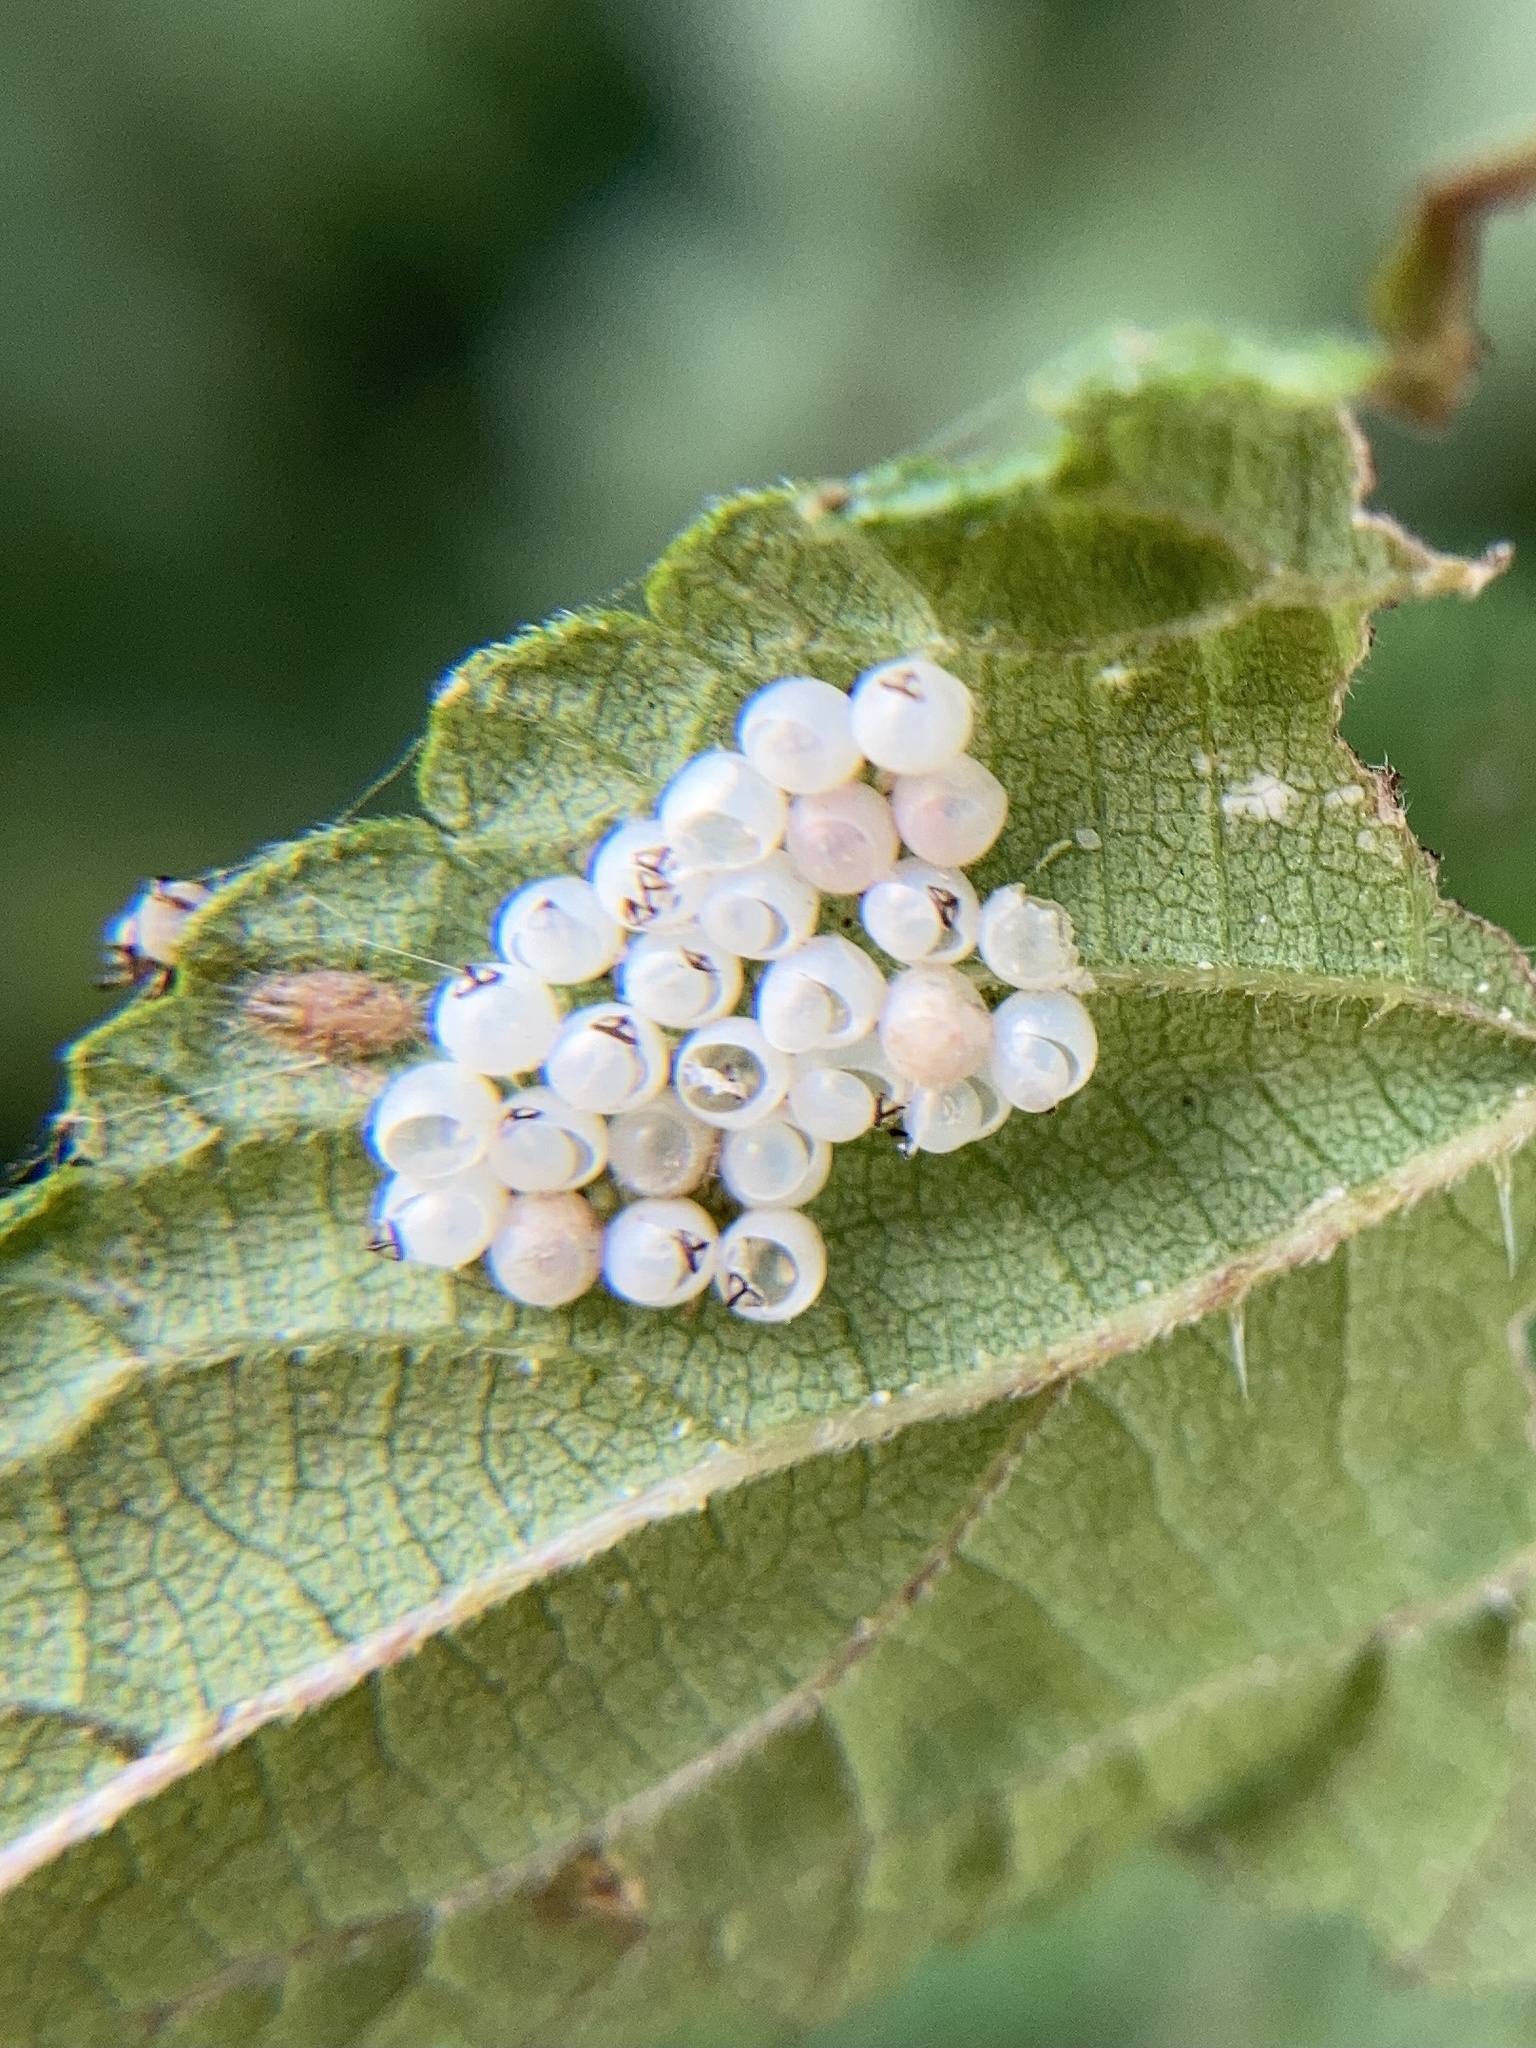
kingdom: Animalia
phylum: Arthropoda
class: Insecta
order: Hemiptera
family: Pentatomidae
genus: Halyomorpha
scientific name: Halyomorpha halys
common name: Brown marmorated stink bug
